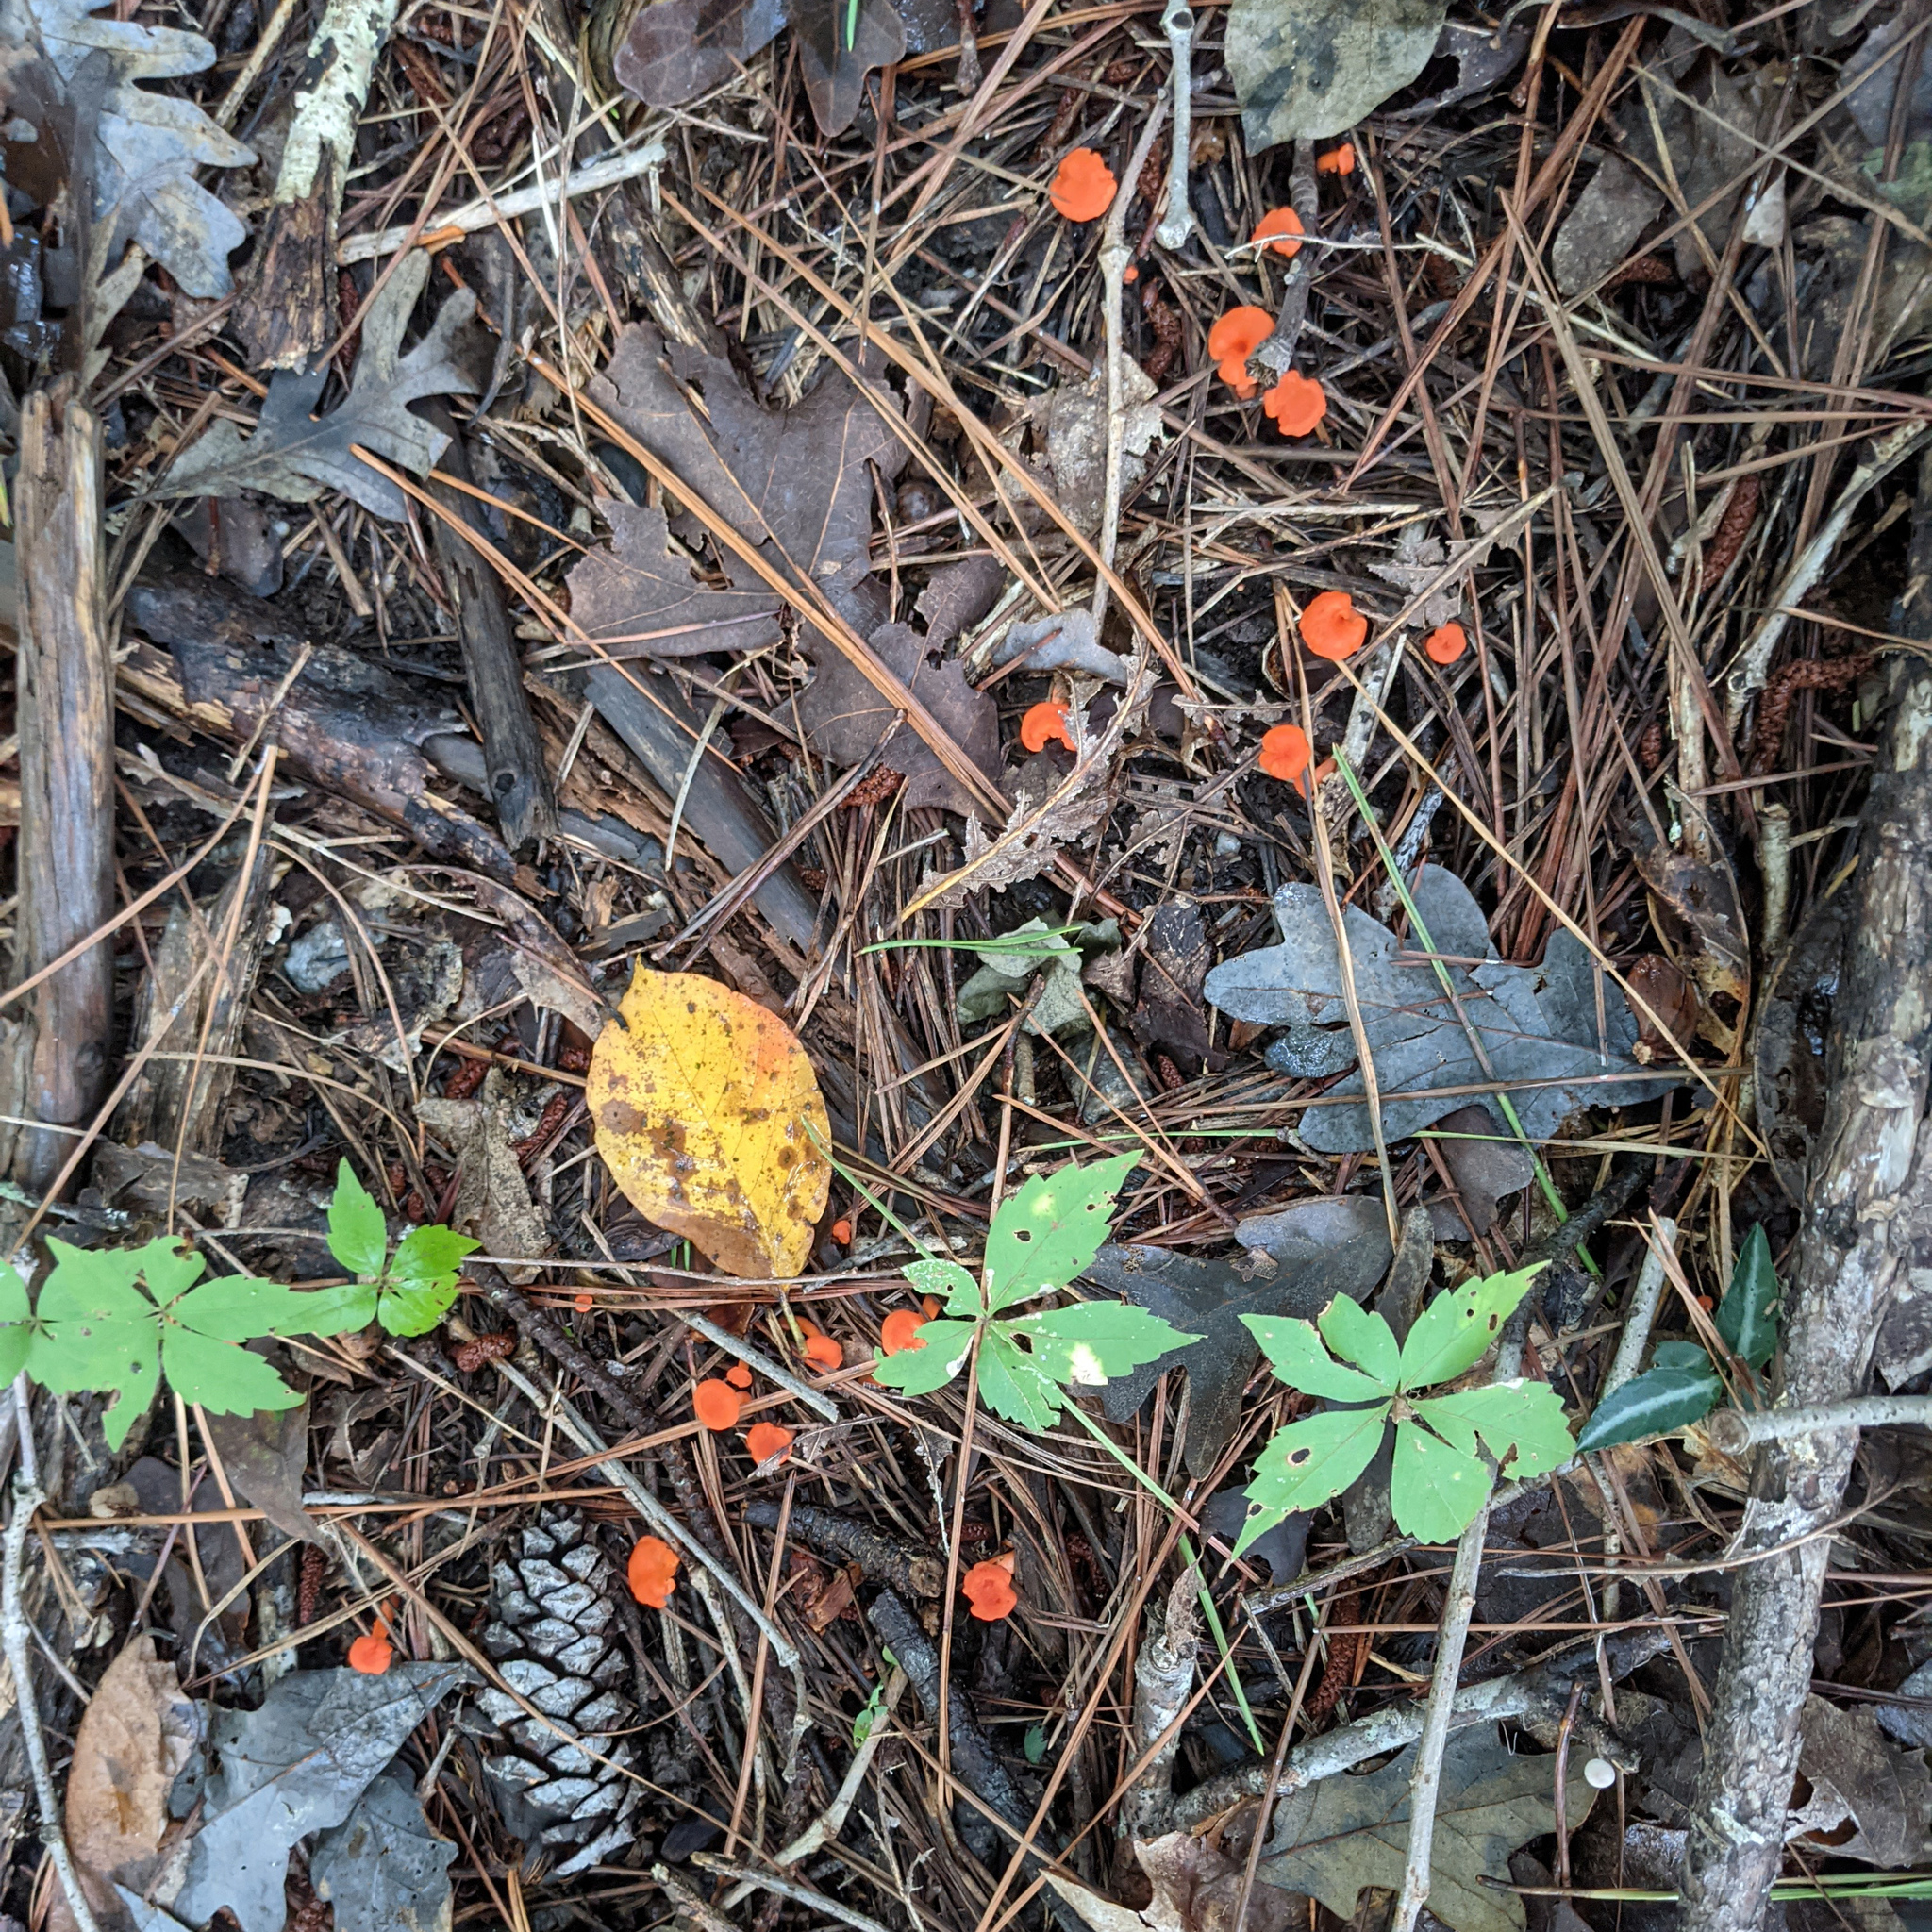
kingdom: Fungi
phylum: Basidiomycota
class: Agaricomycetes
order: Cantharellales
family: Hydnaceae
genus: Cantharellus
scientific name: Cantharellus cinnabarinus
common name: Cinnabar chanterelle
